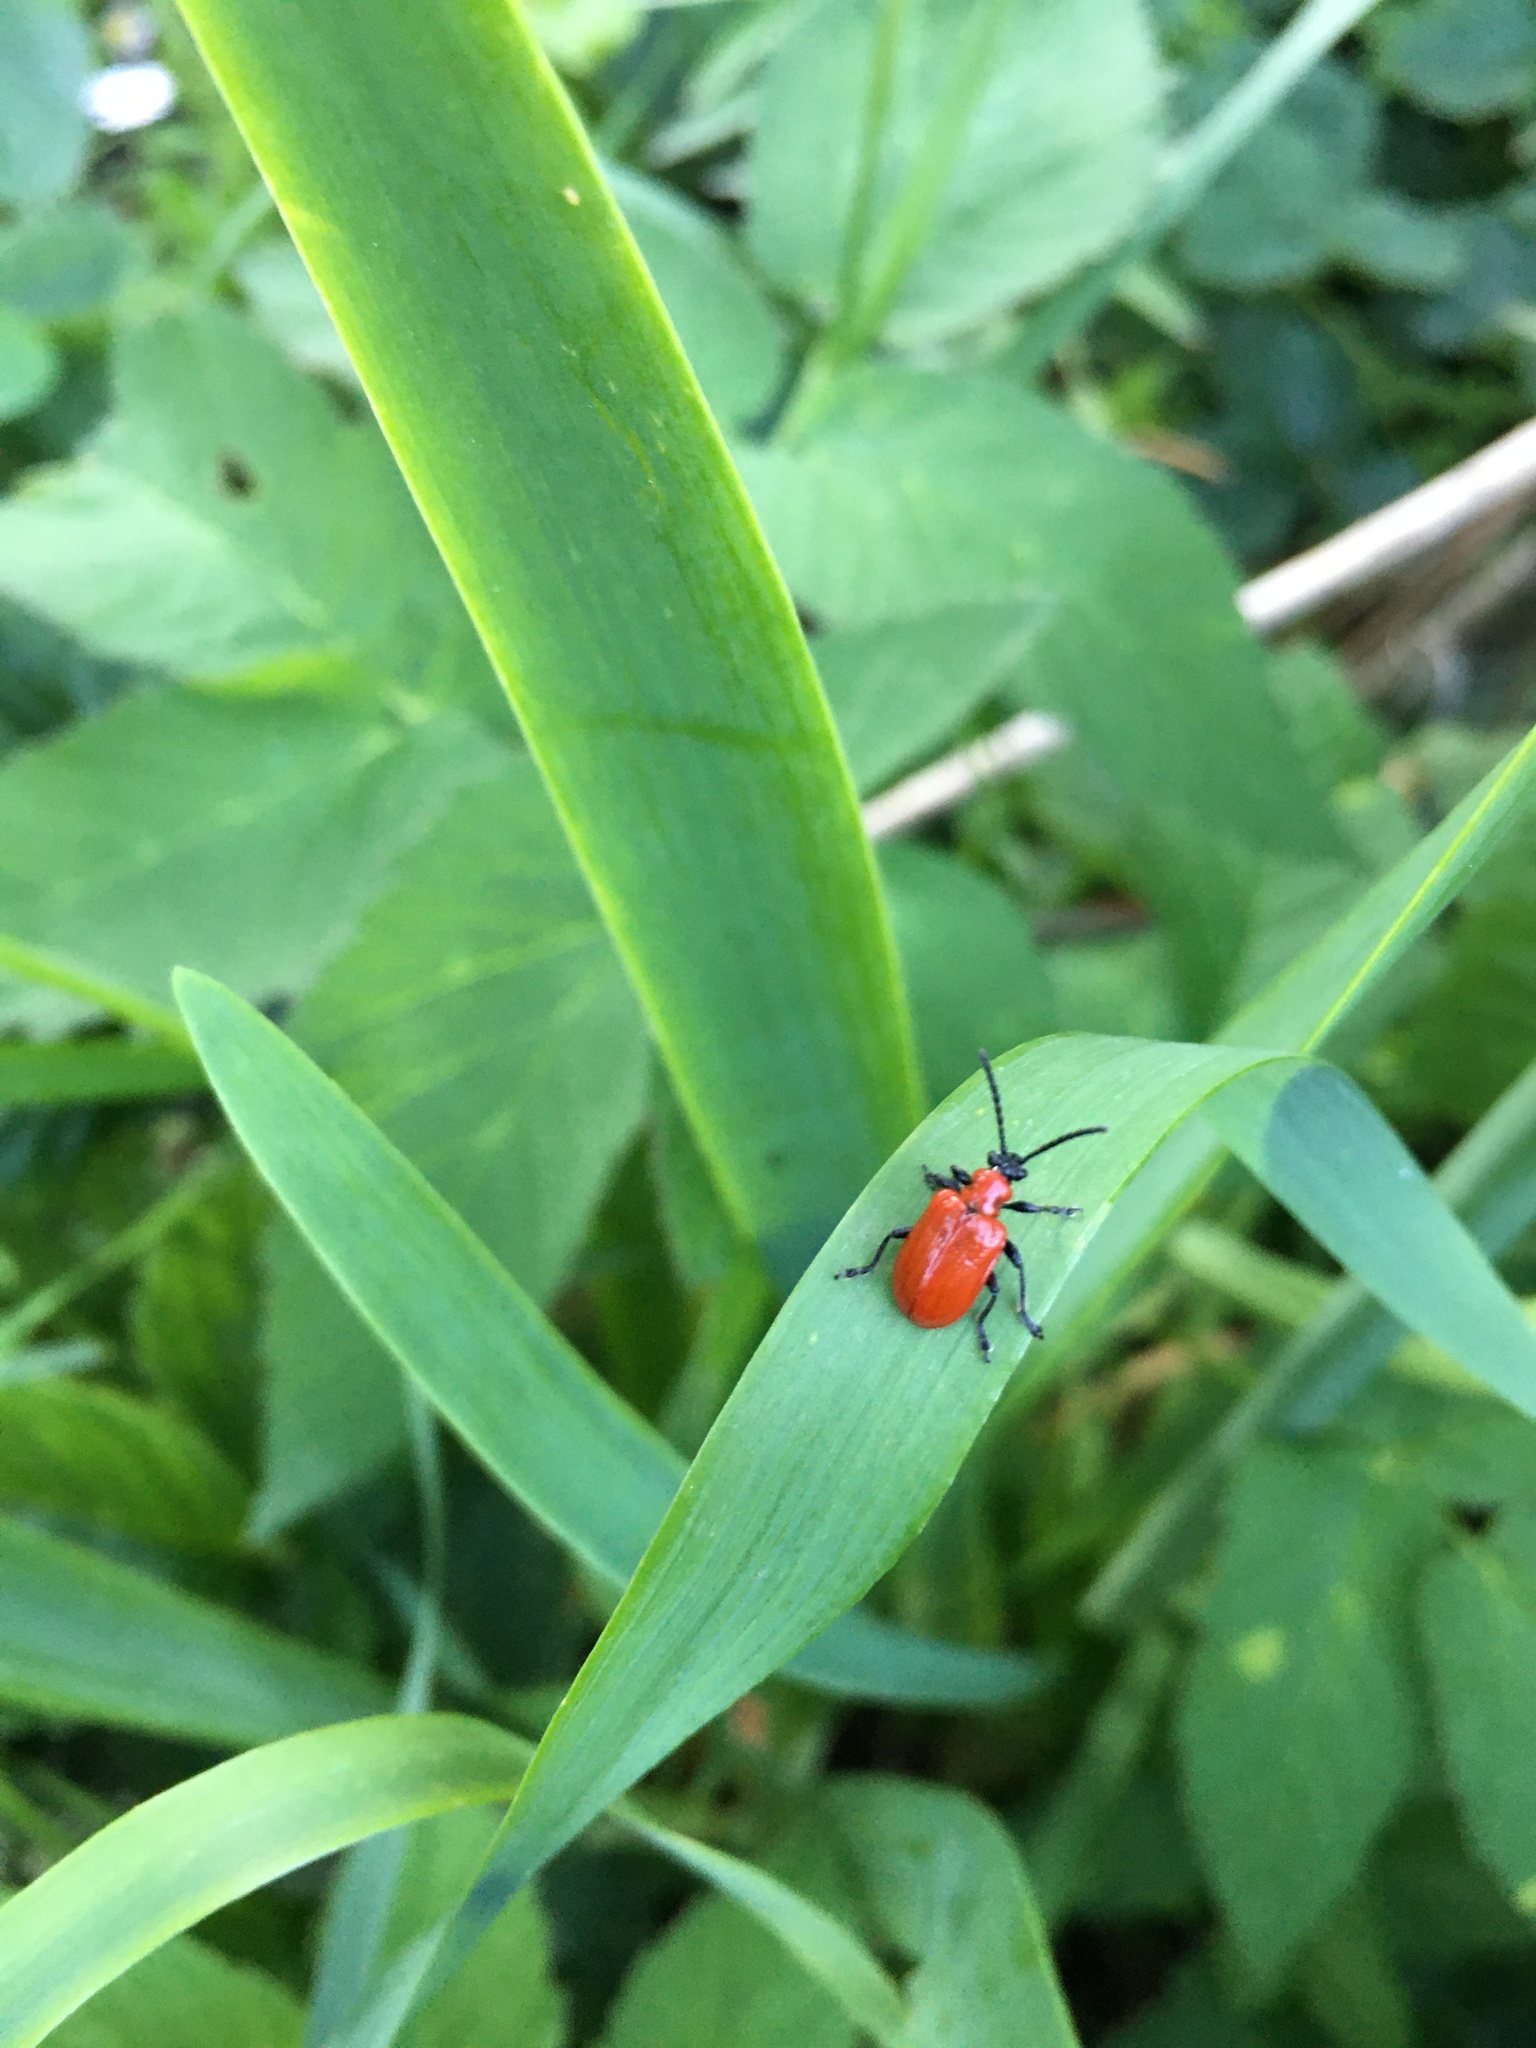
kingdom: Animalia
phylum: Arthropoda
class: Insecta
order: Coleoptera
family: Chrysomelidae
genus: Lilioceris
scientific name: Lilioceris lilii
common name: Lily beetle
